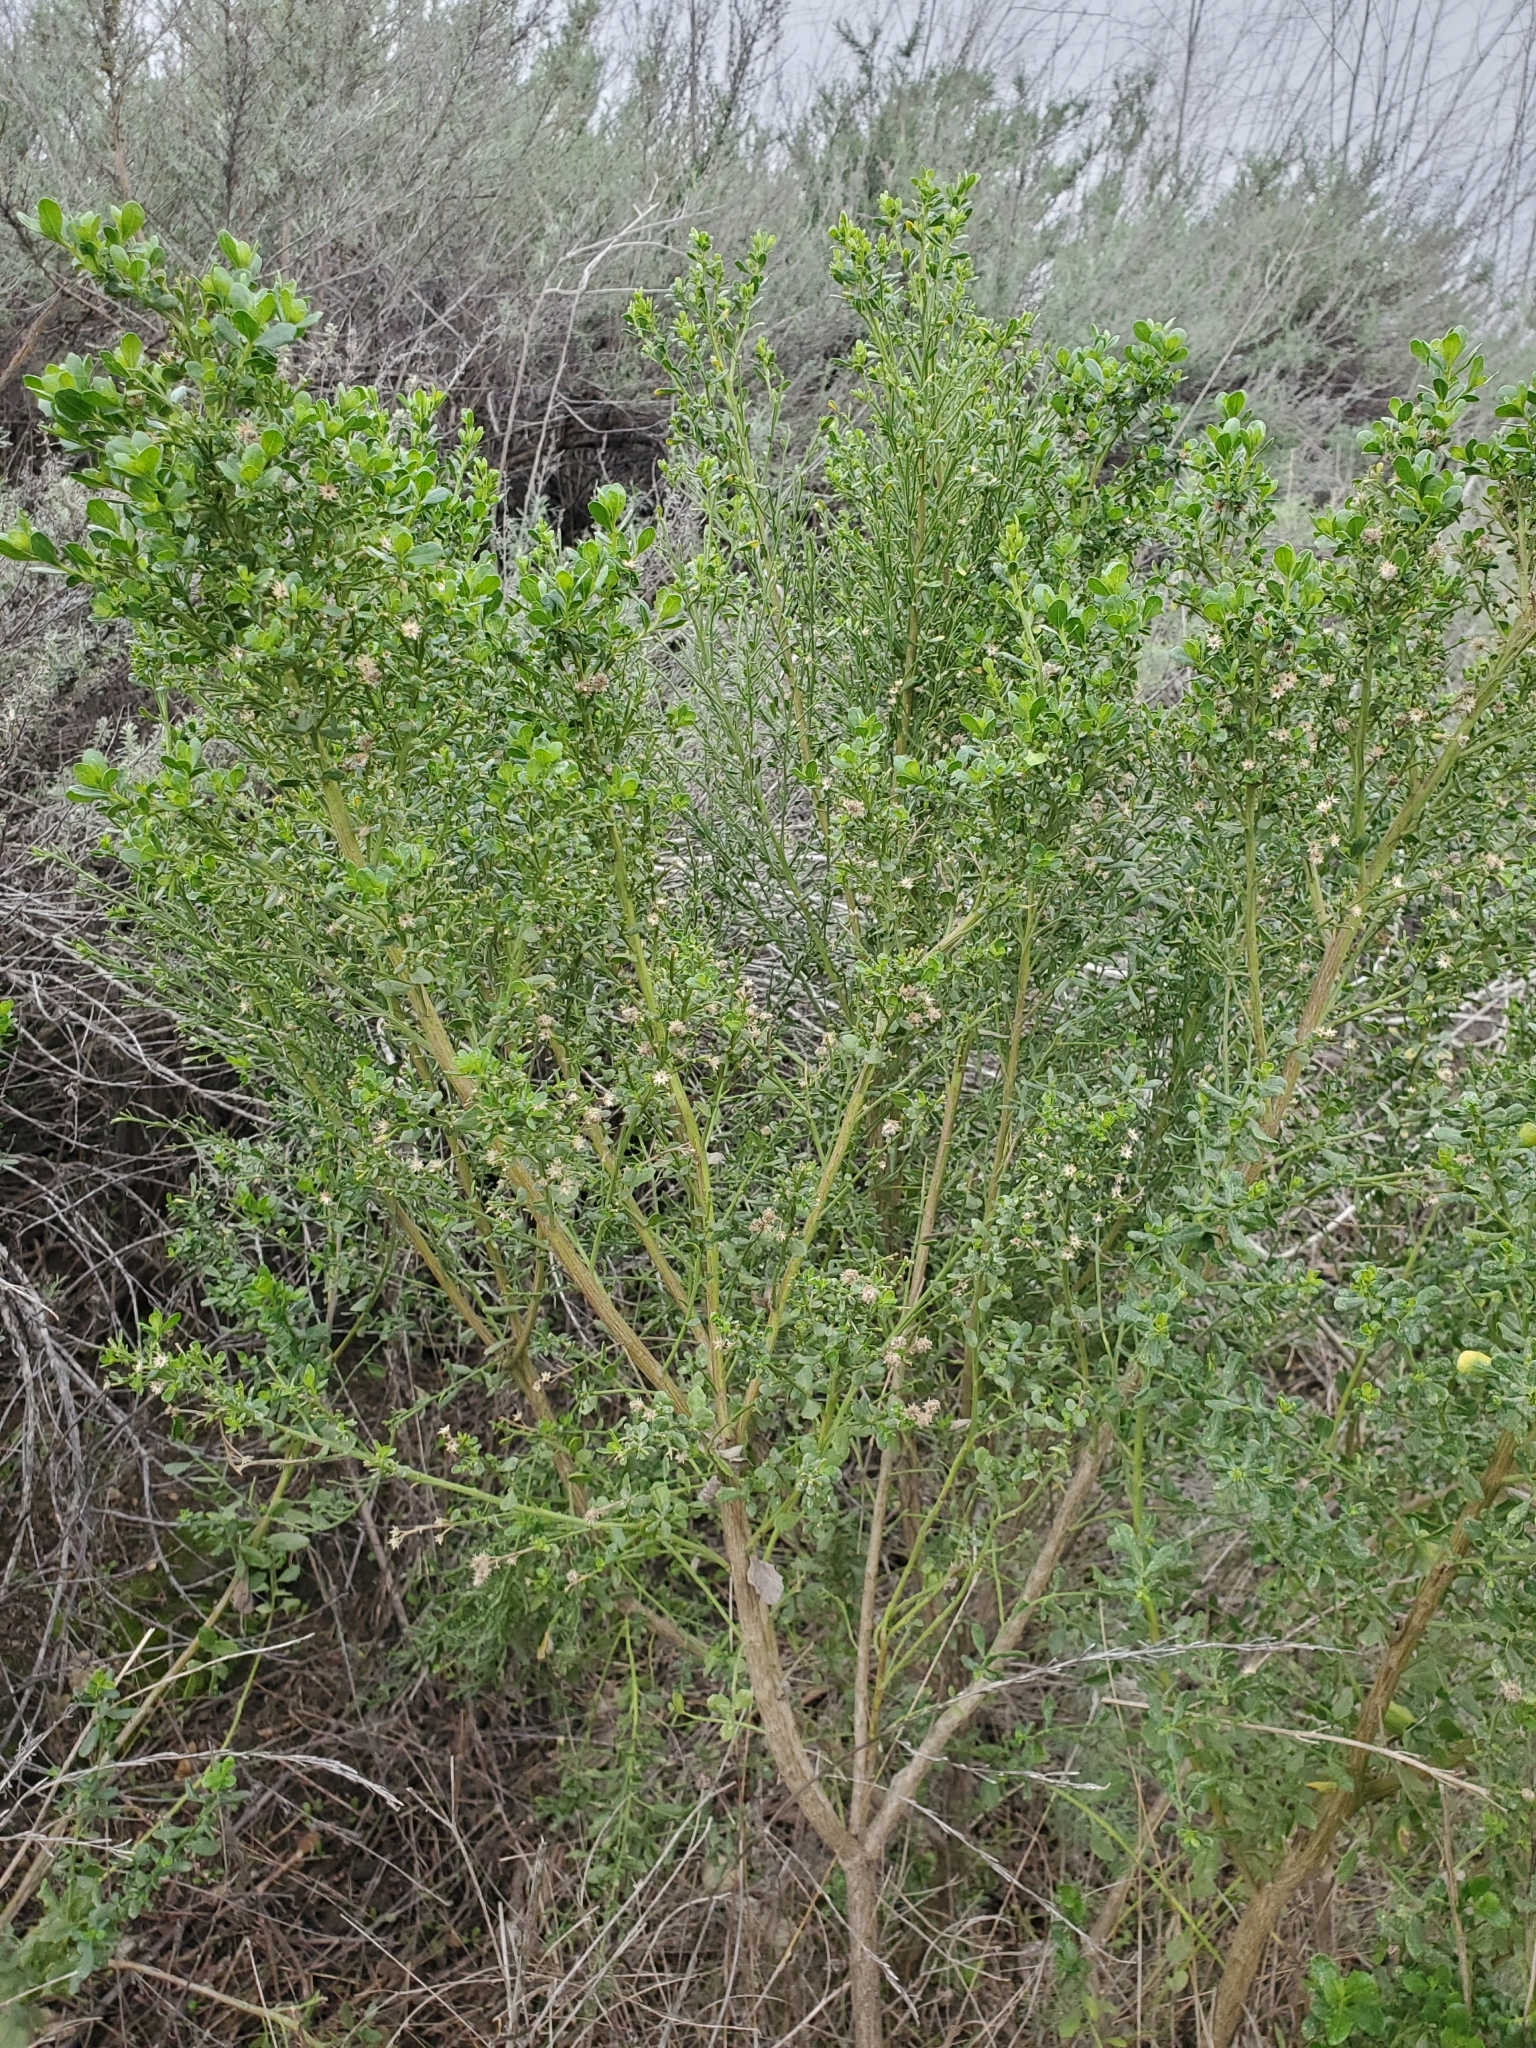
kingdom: Plantae
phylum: Tracheophyta
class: Magnoliopsida
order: Asterales
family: Asteraceae
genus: Baccharis
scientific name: Baccharis pilularis
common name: Coyotebrush
